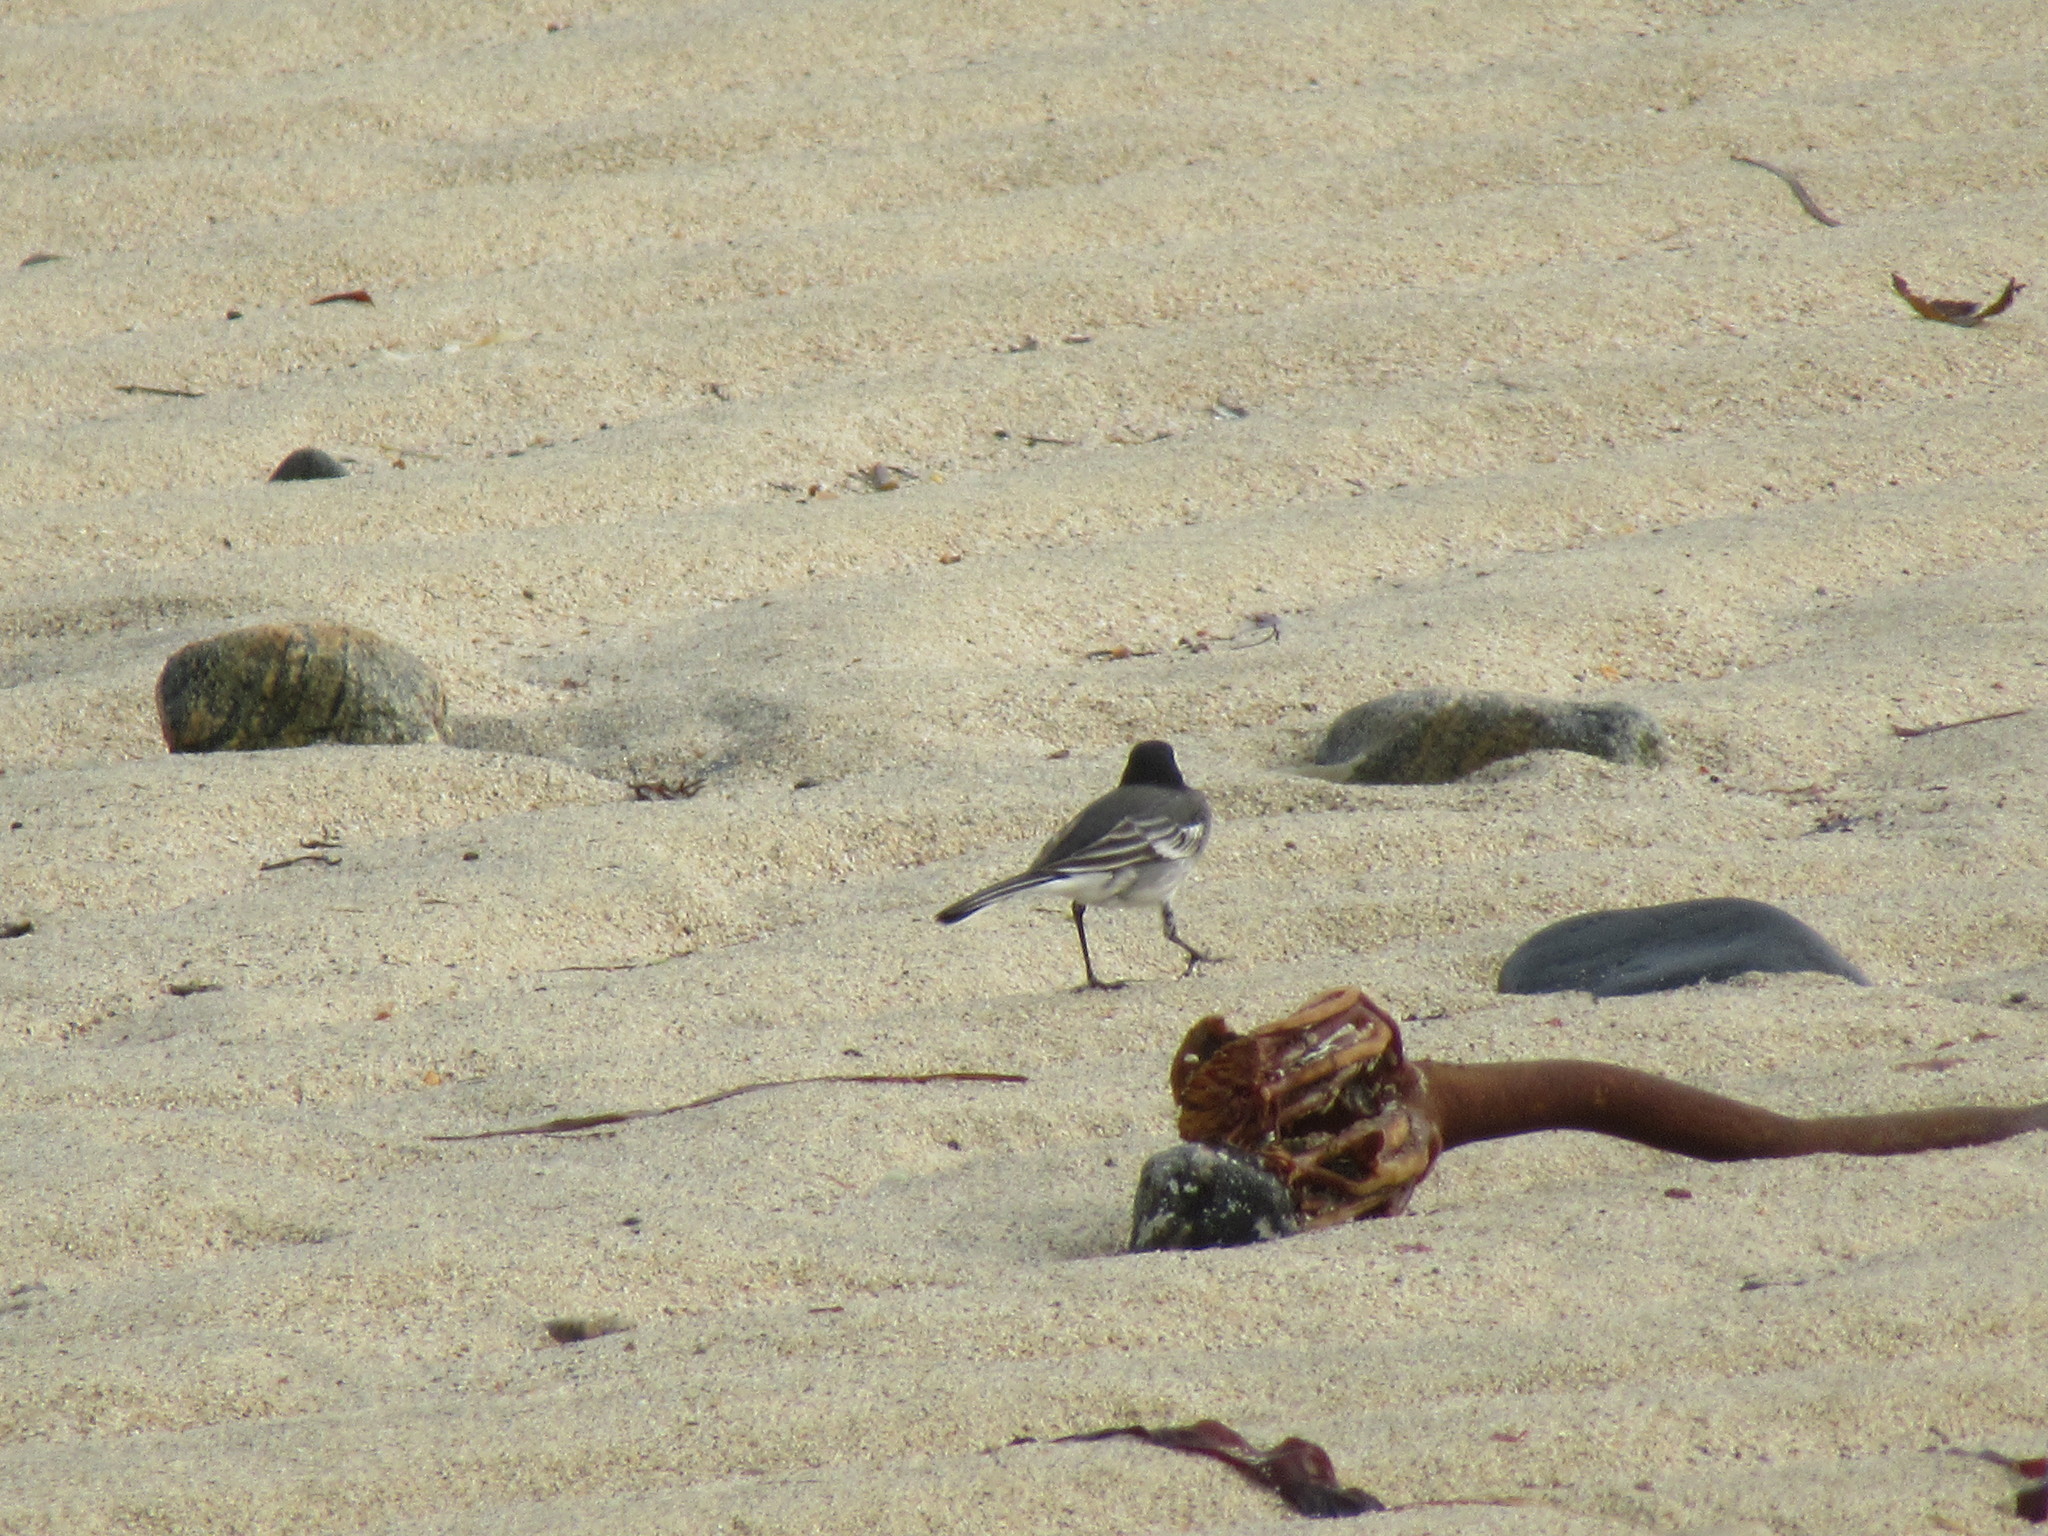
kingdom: Animalia
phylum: Chordata
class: Aves
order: Passeriformes
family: Motacillidae
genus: Motacilla
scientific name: Motacilla alba
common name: White wagtail
